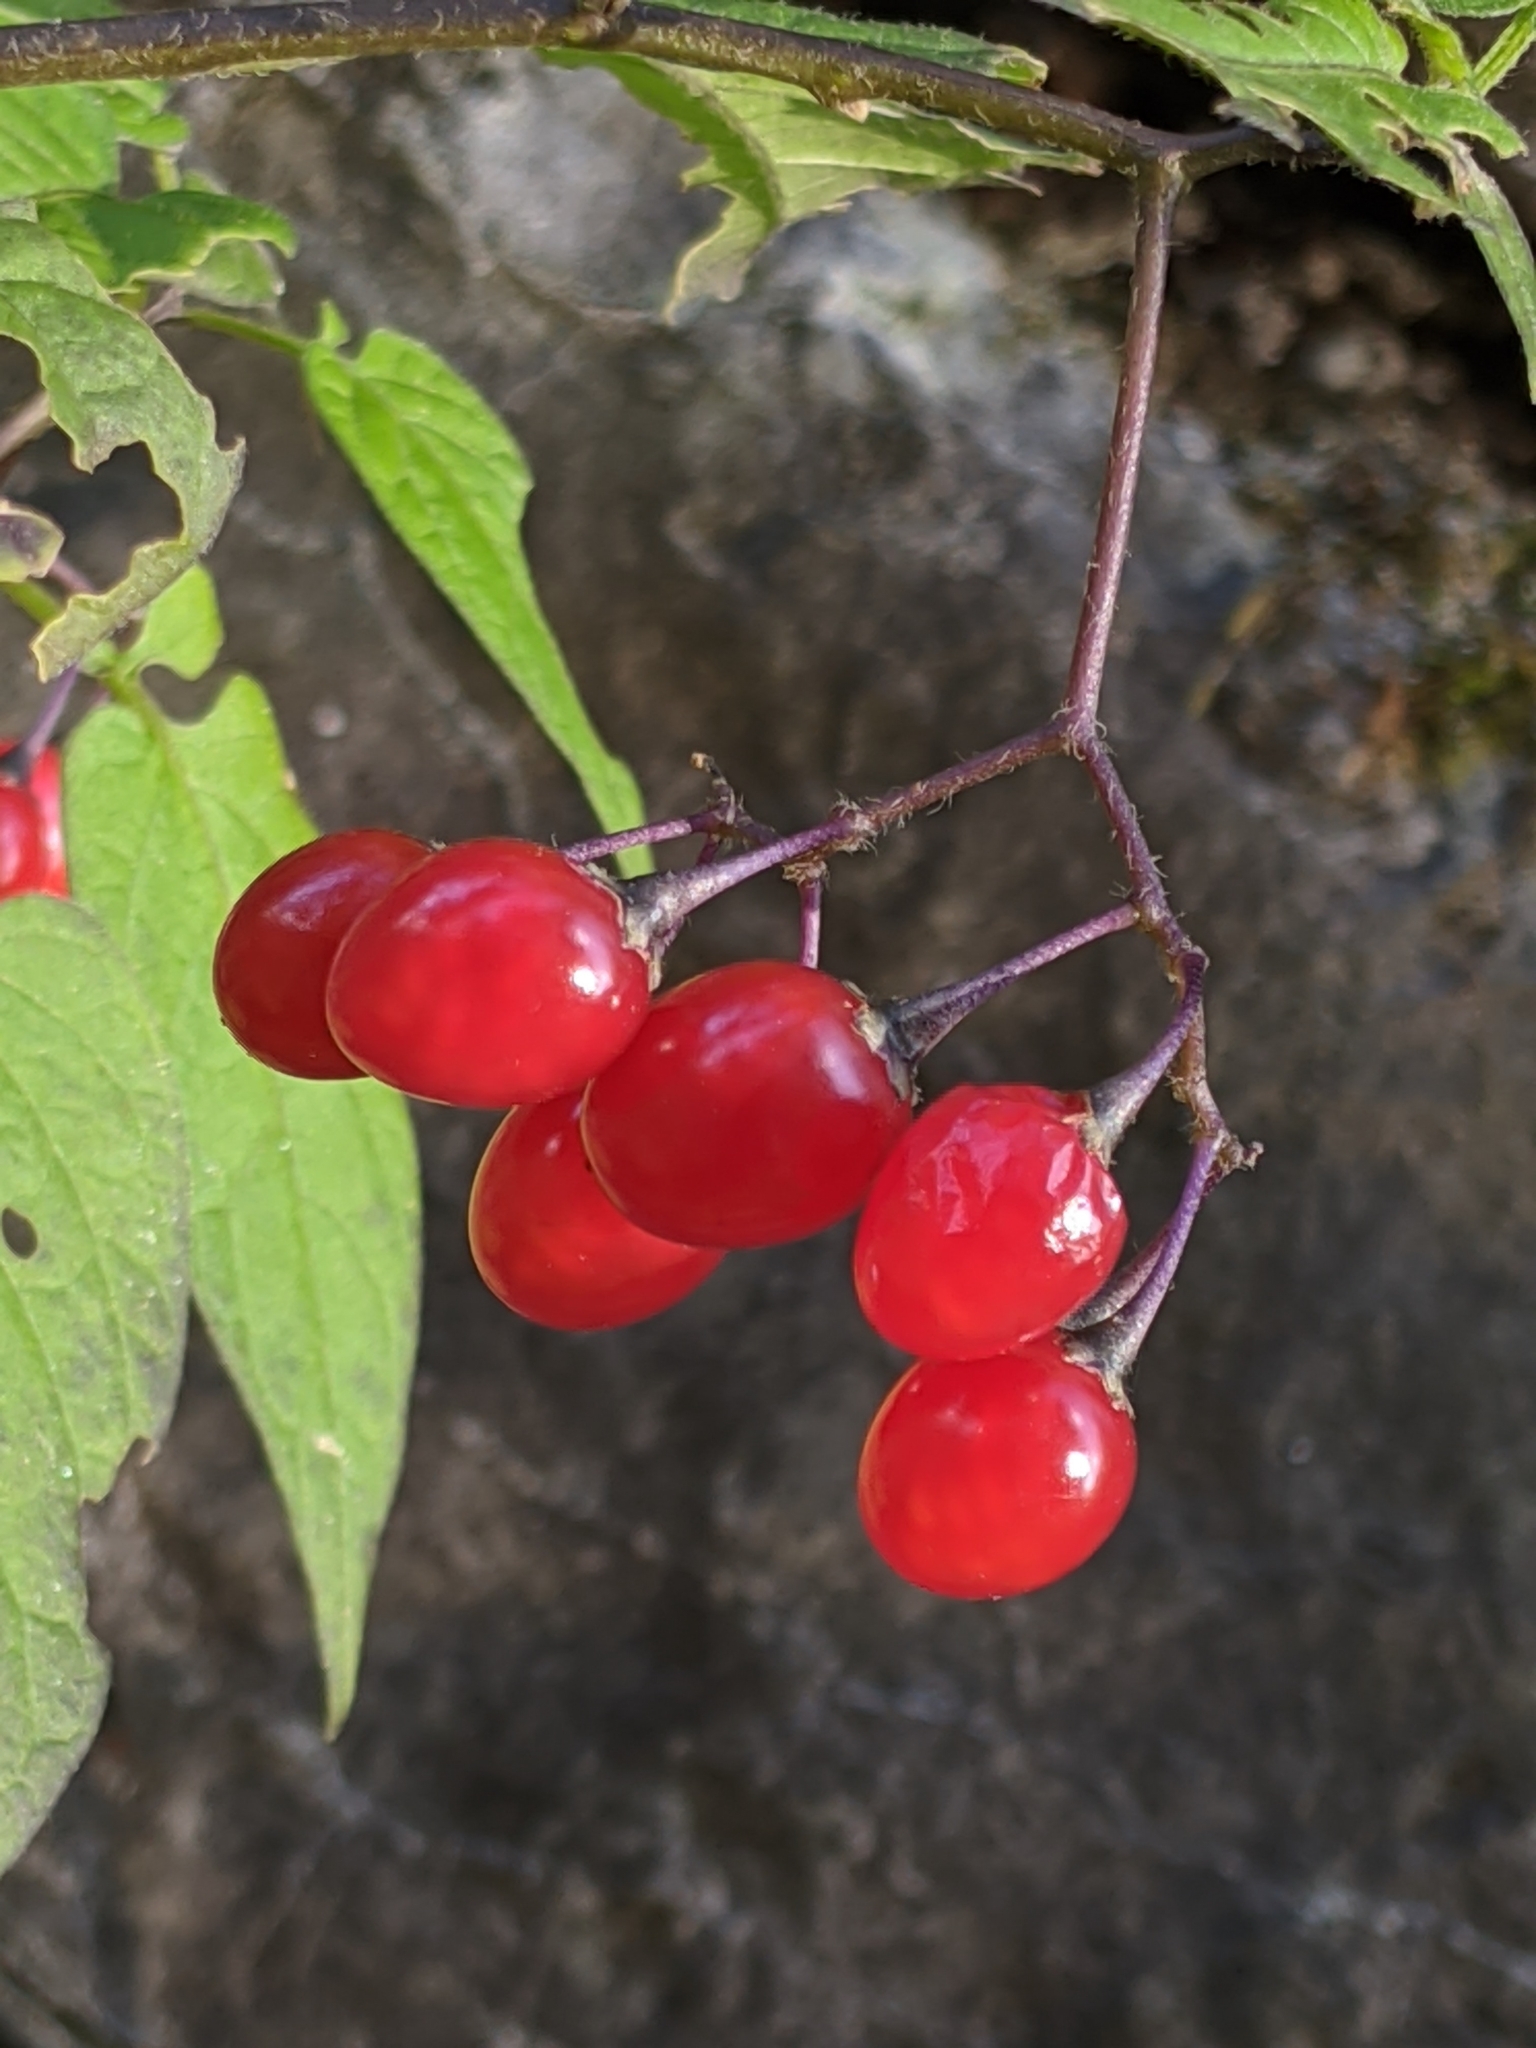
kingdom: Plantae
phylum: Tracheophyta
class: Magnoliopsida
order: Solanales
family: Solanaceae
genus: Solanum
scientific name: Solanum dulcamara
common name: Climbing nightshade
